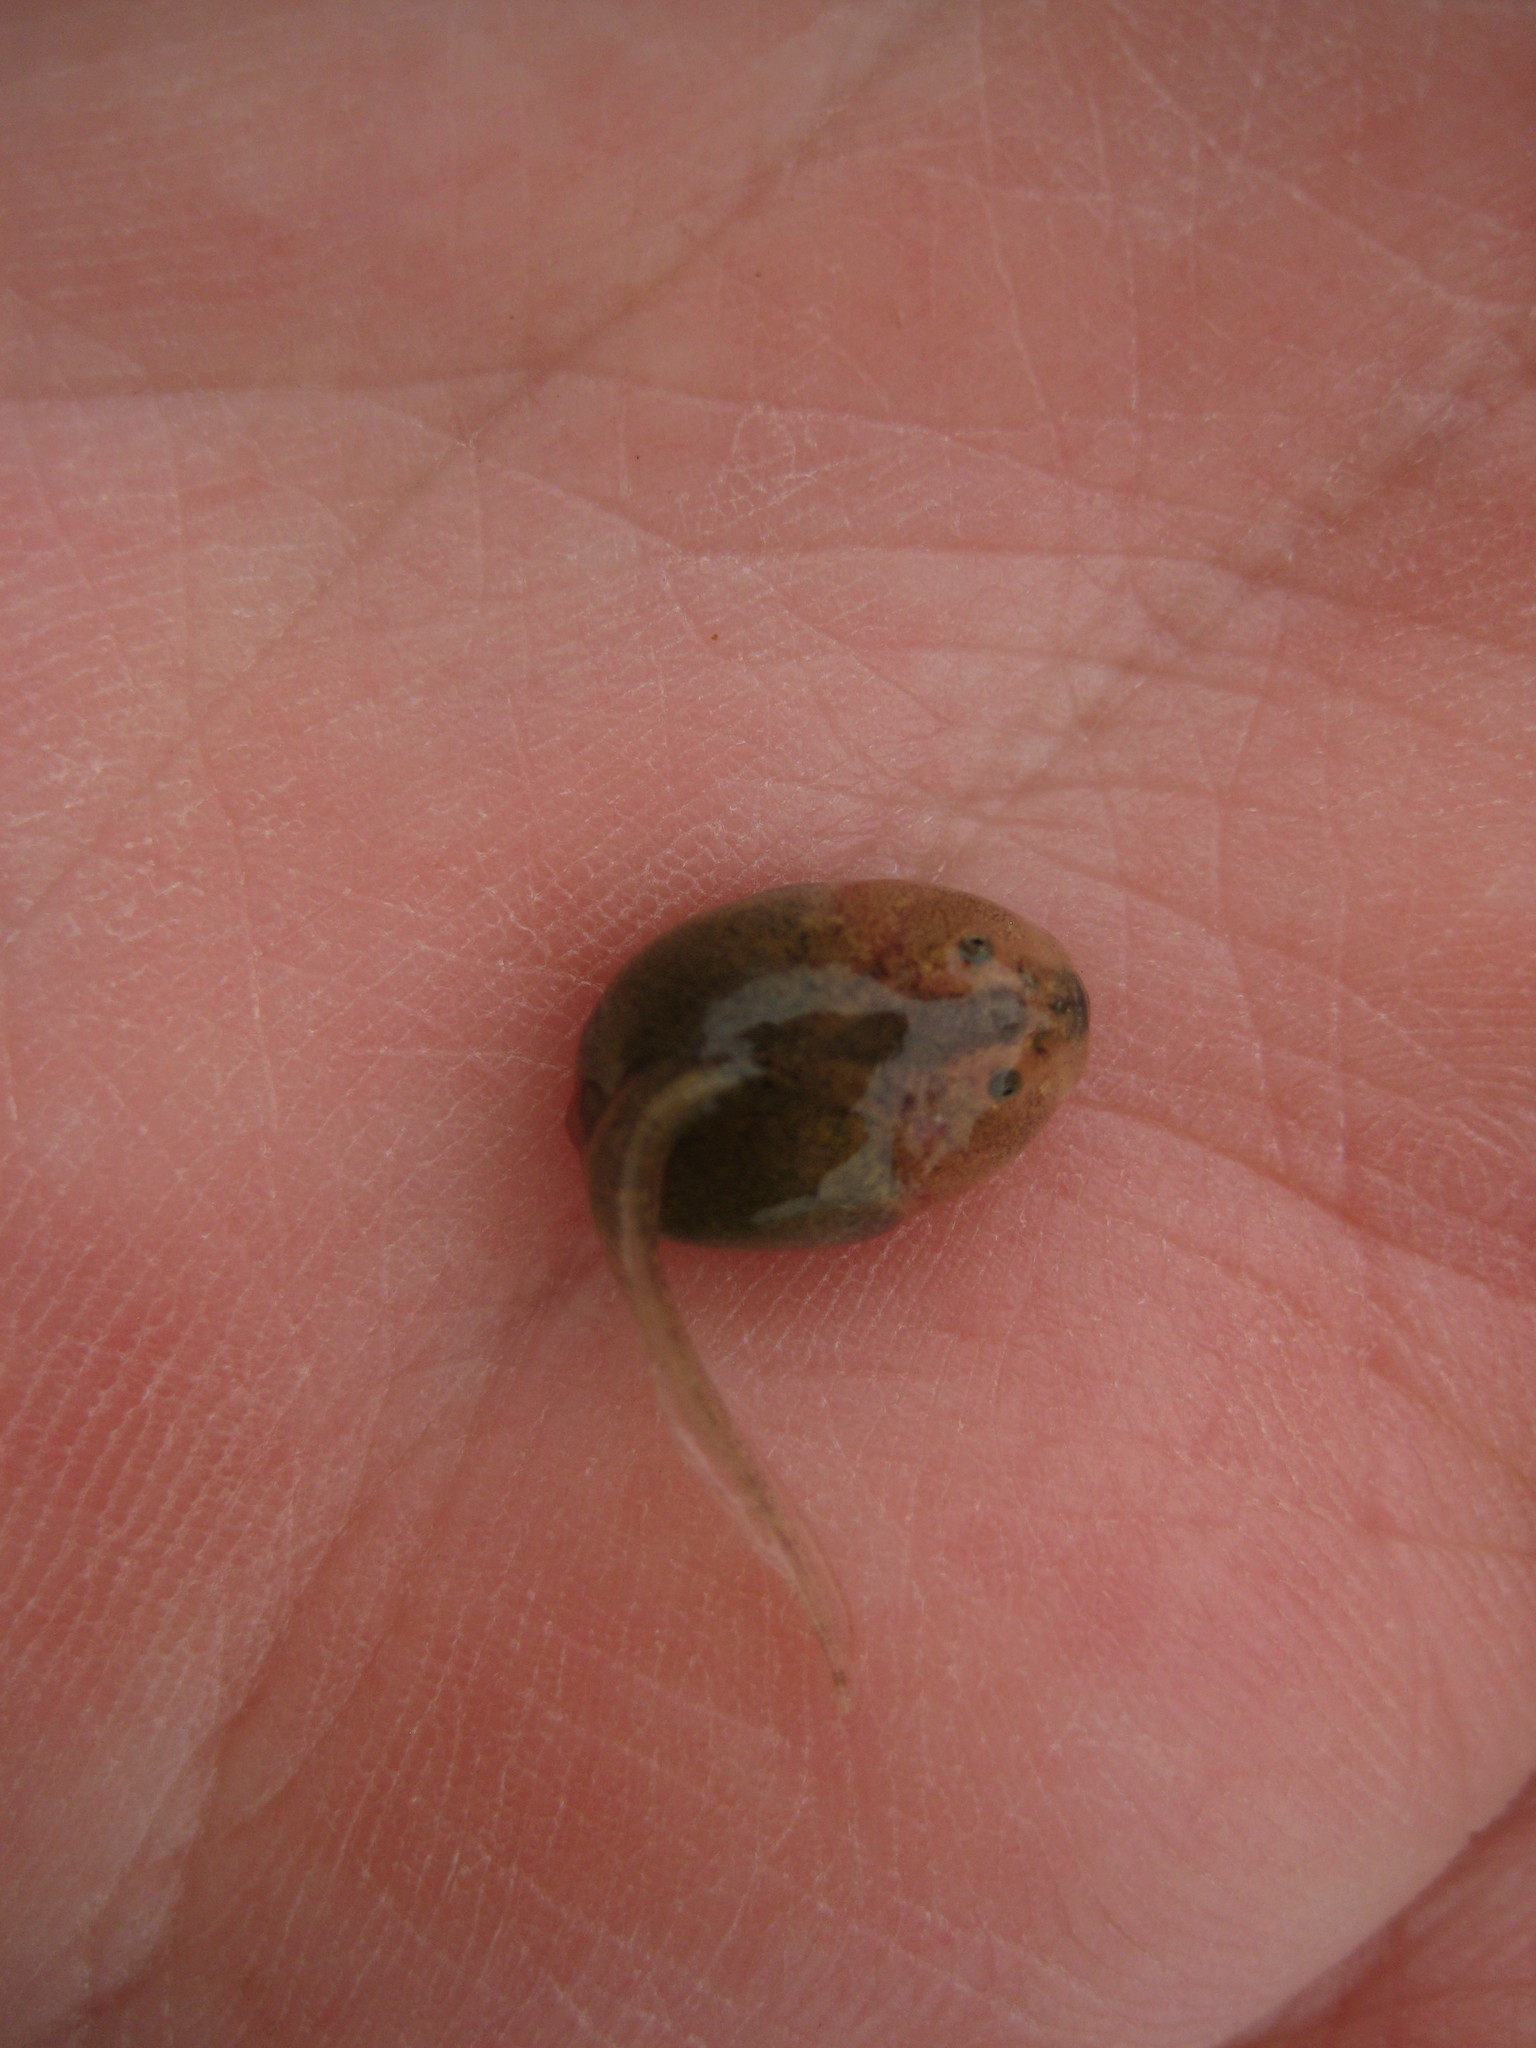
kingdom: Animalia
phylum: Chordata
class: Amphibia
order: Anura
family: Scaphiopodidae
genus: Spea
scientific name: Spea hammondii
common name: Western spadefoot toad
